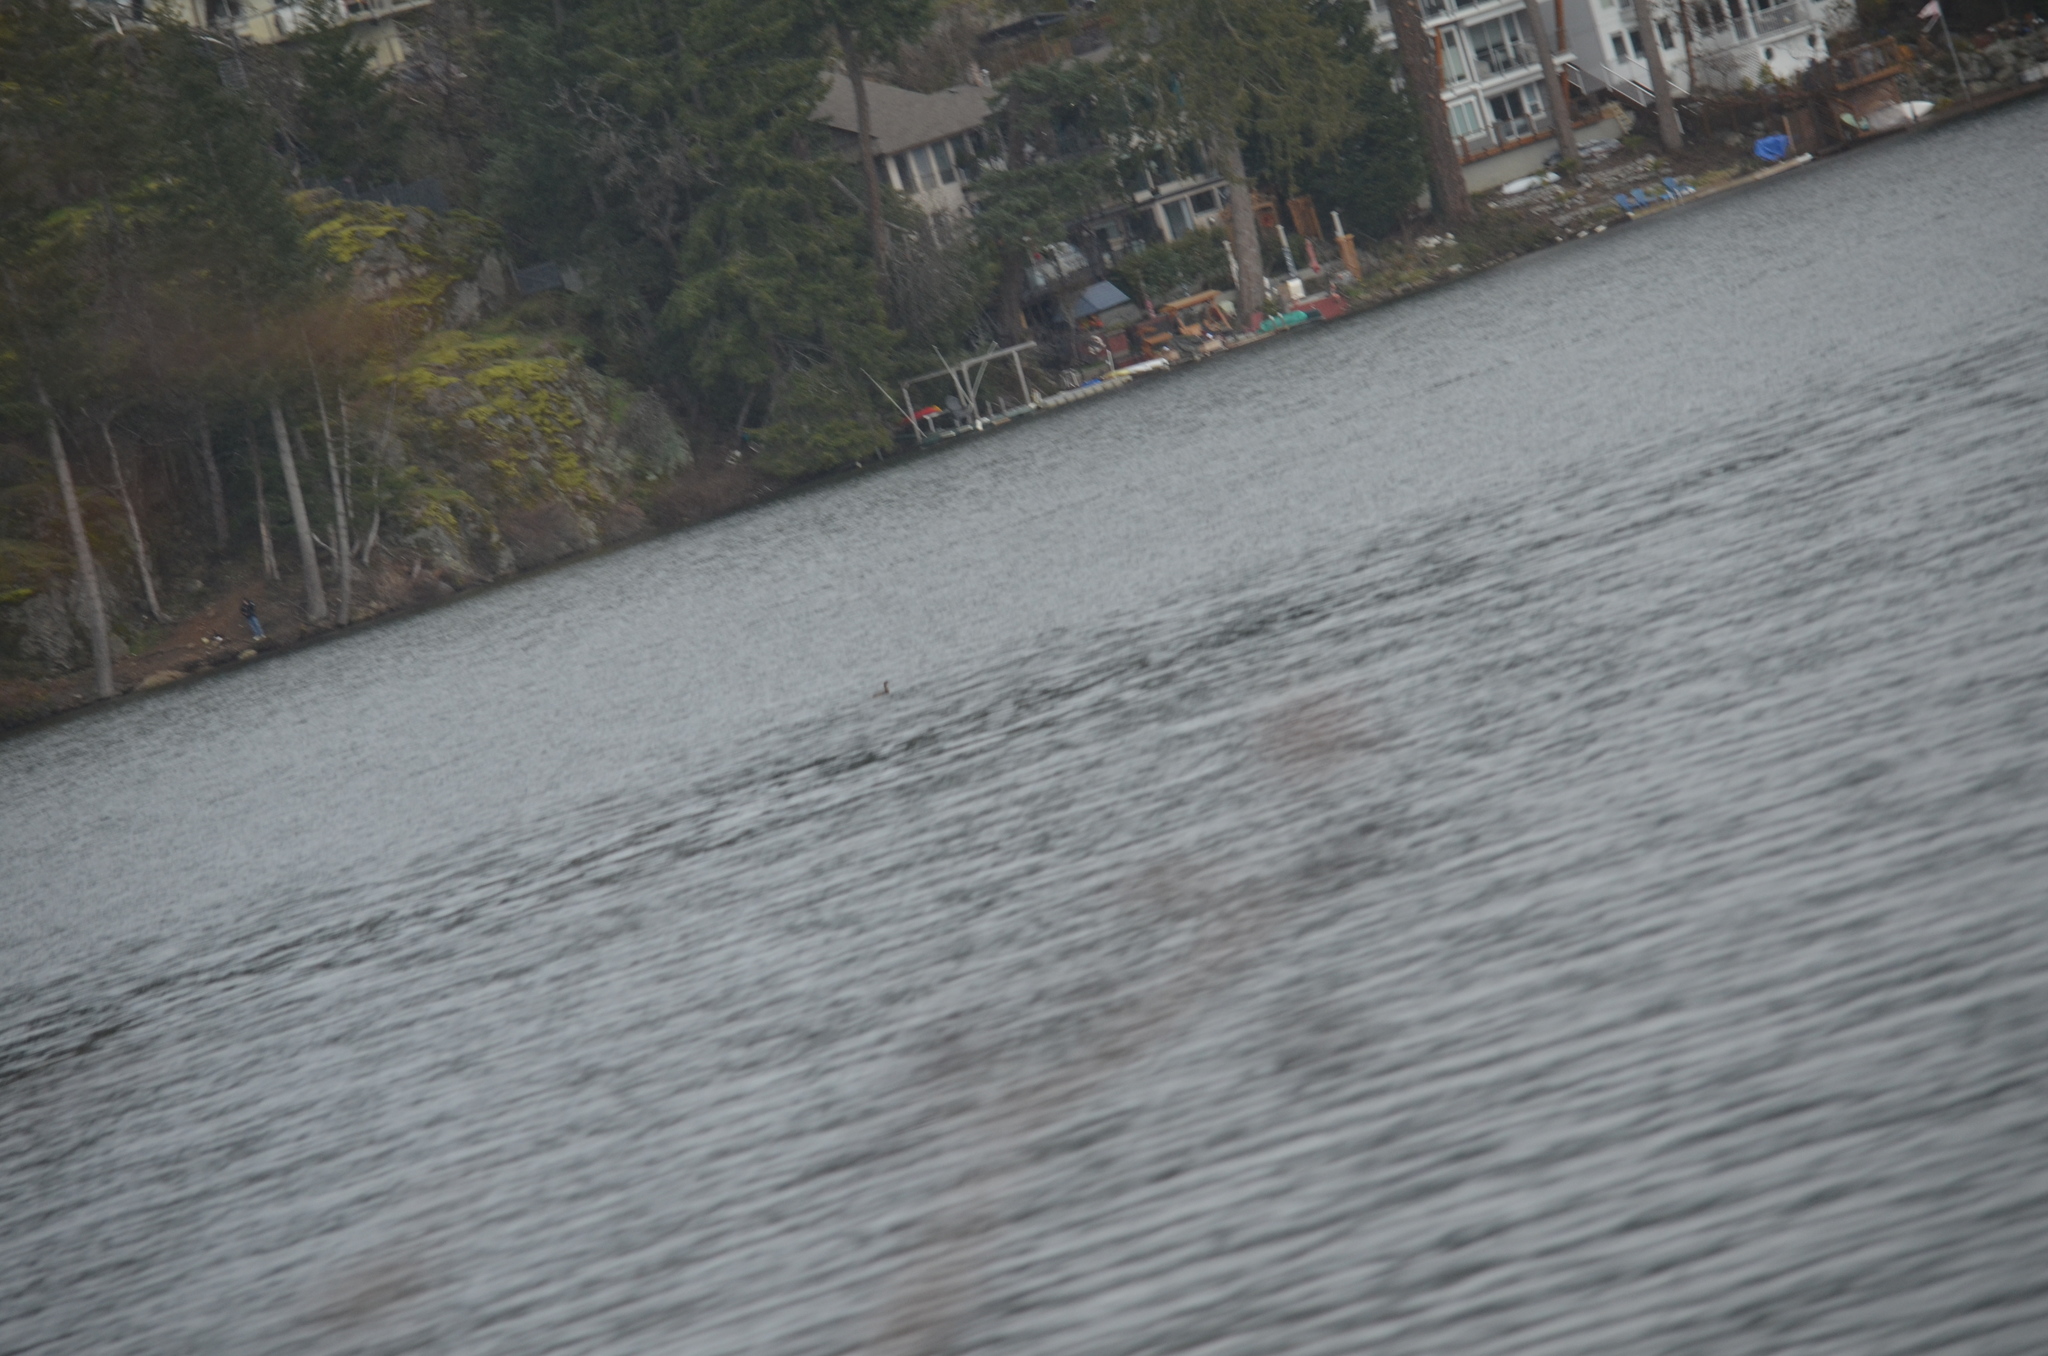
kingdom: Animalia
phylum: Chordata
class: Aves
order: Podicipediformes
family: Podicipedidae
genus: Podilymbus
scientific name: Podilymbus podiceps
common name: Pied-billed grebe
